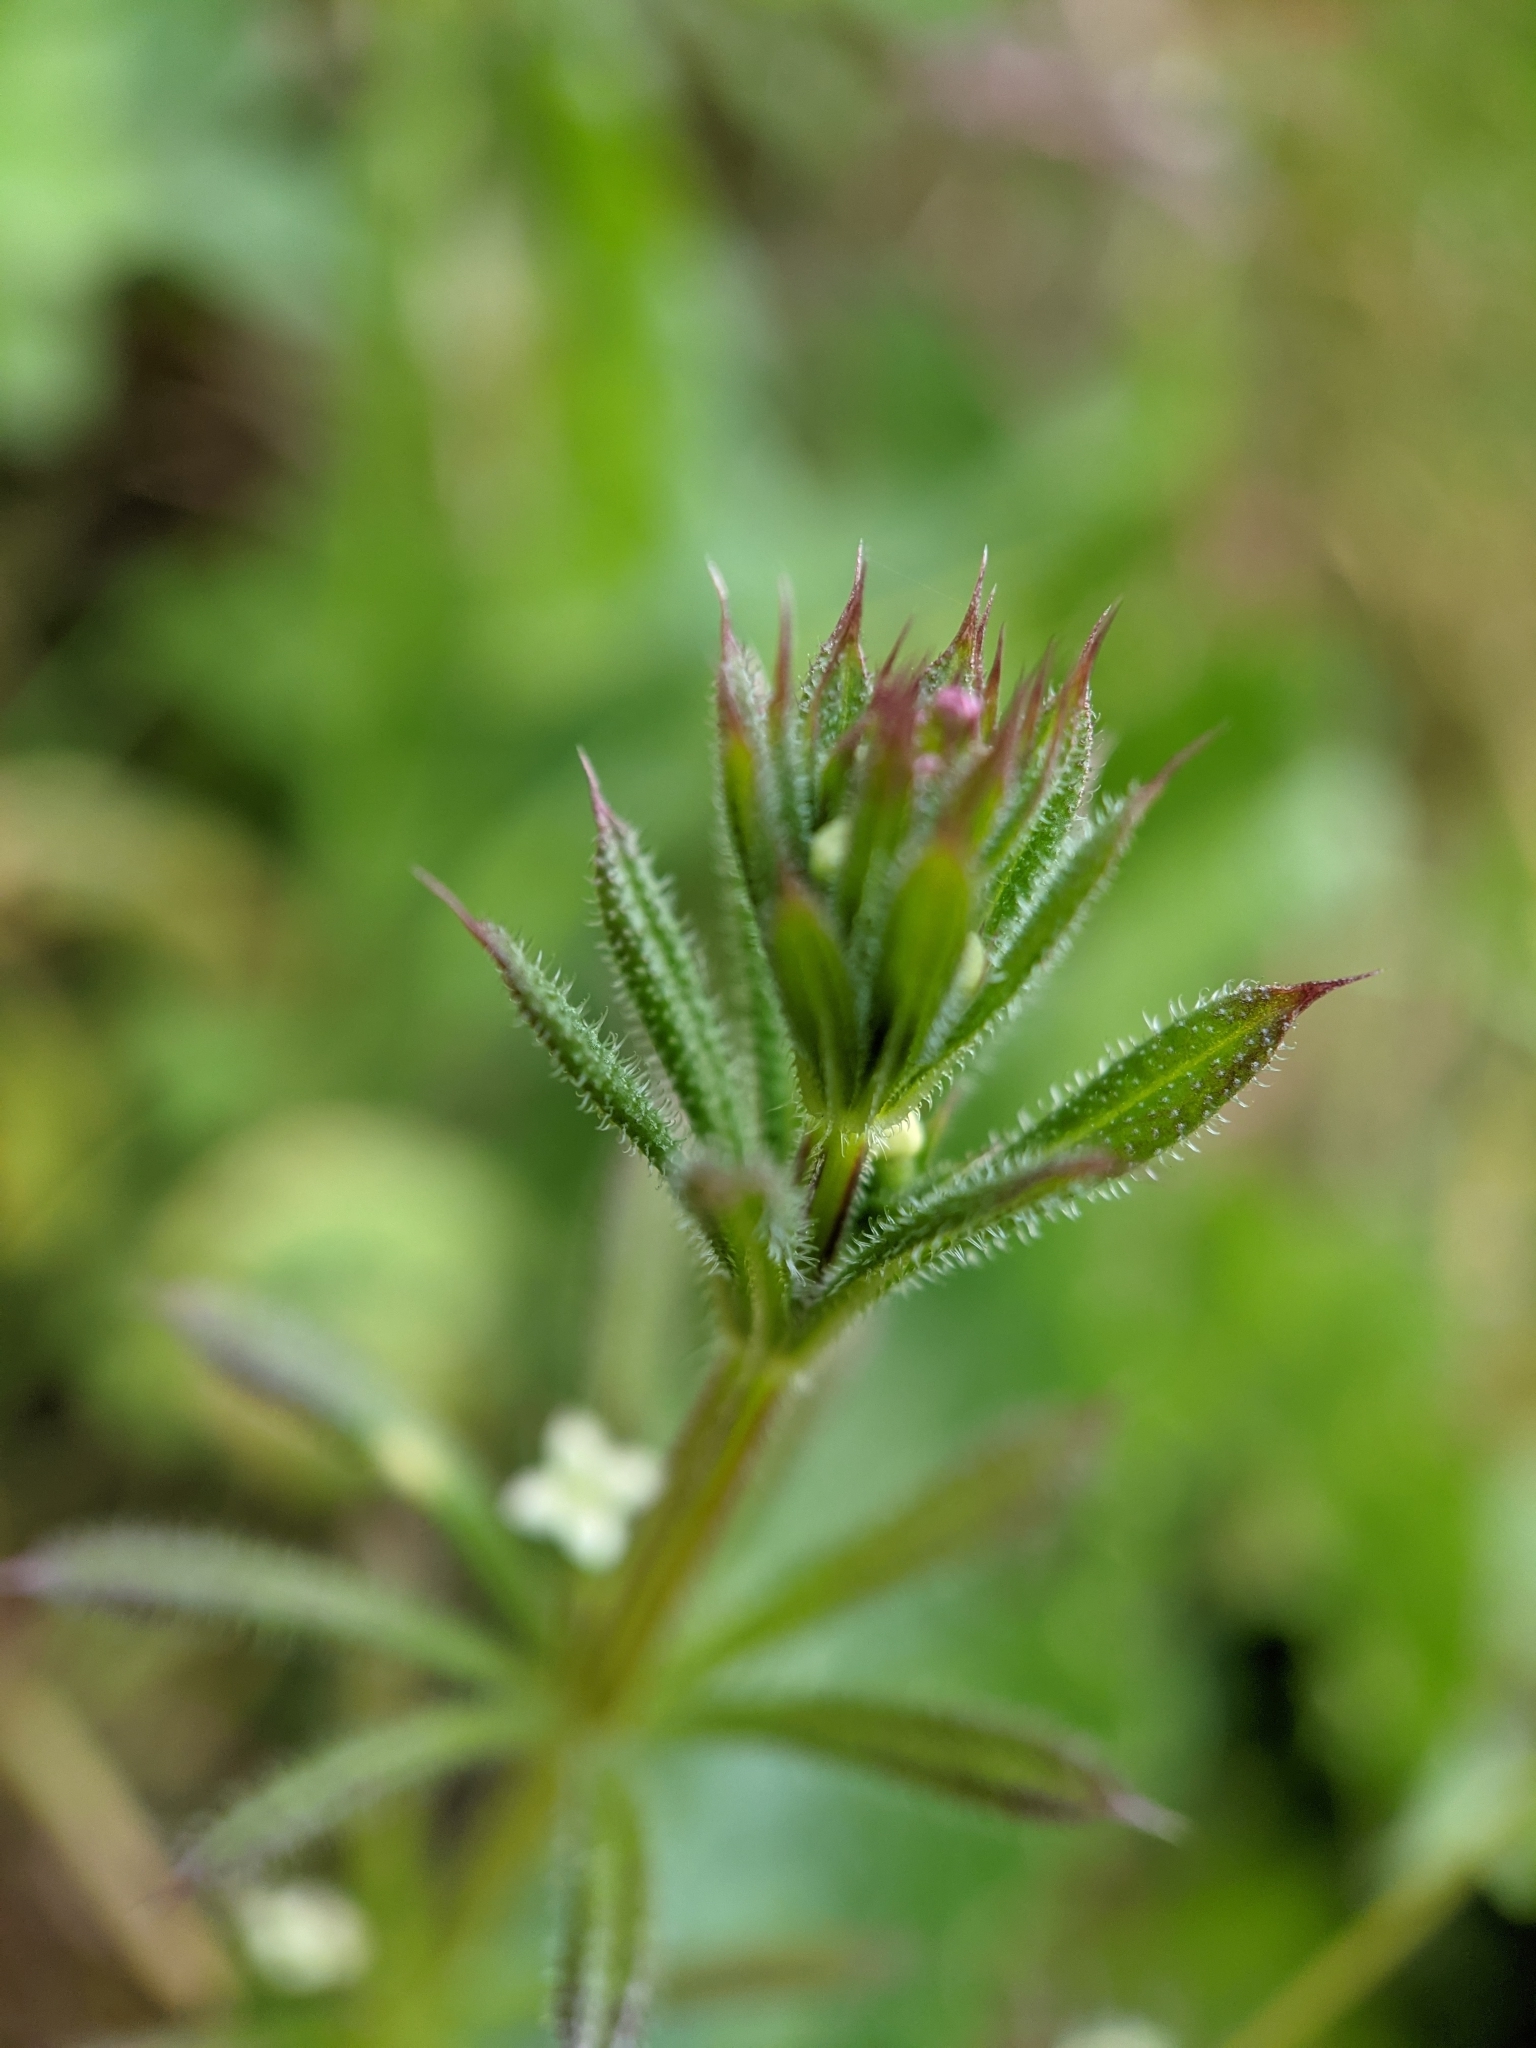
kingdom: Plantae
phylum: Tracheophyta
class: Magnoliopsida
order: Gentianales
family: Rubiaceae
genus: Galium
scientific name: Galium aparine
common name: Cleavers
